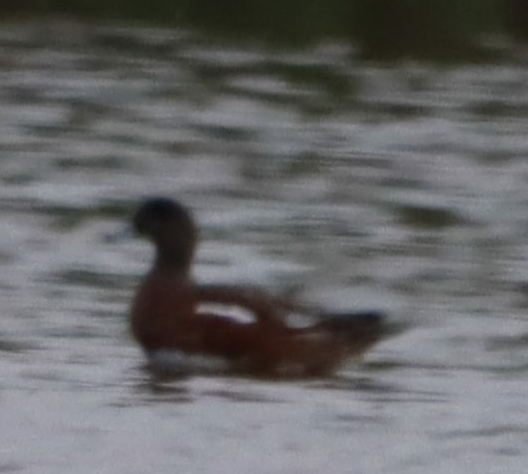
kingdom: Animalia
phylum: Chordata
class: Aves
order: Anseriformes
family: Anatidae
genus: Mareca
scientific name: Mareca americana
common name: American wigeon
